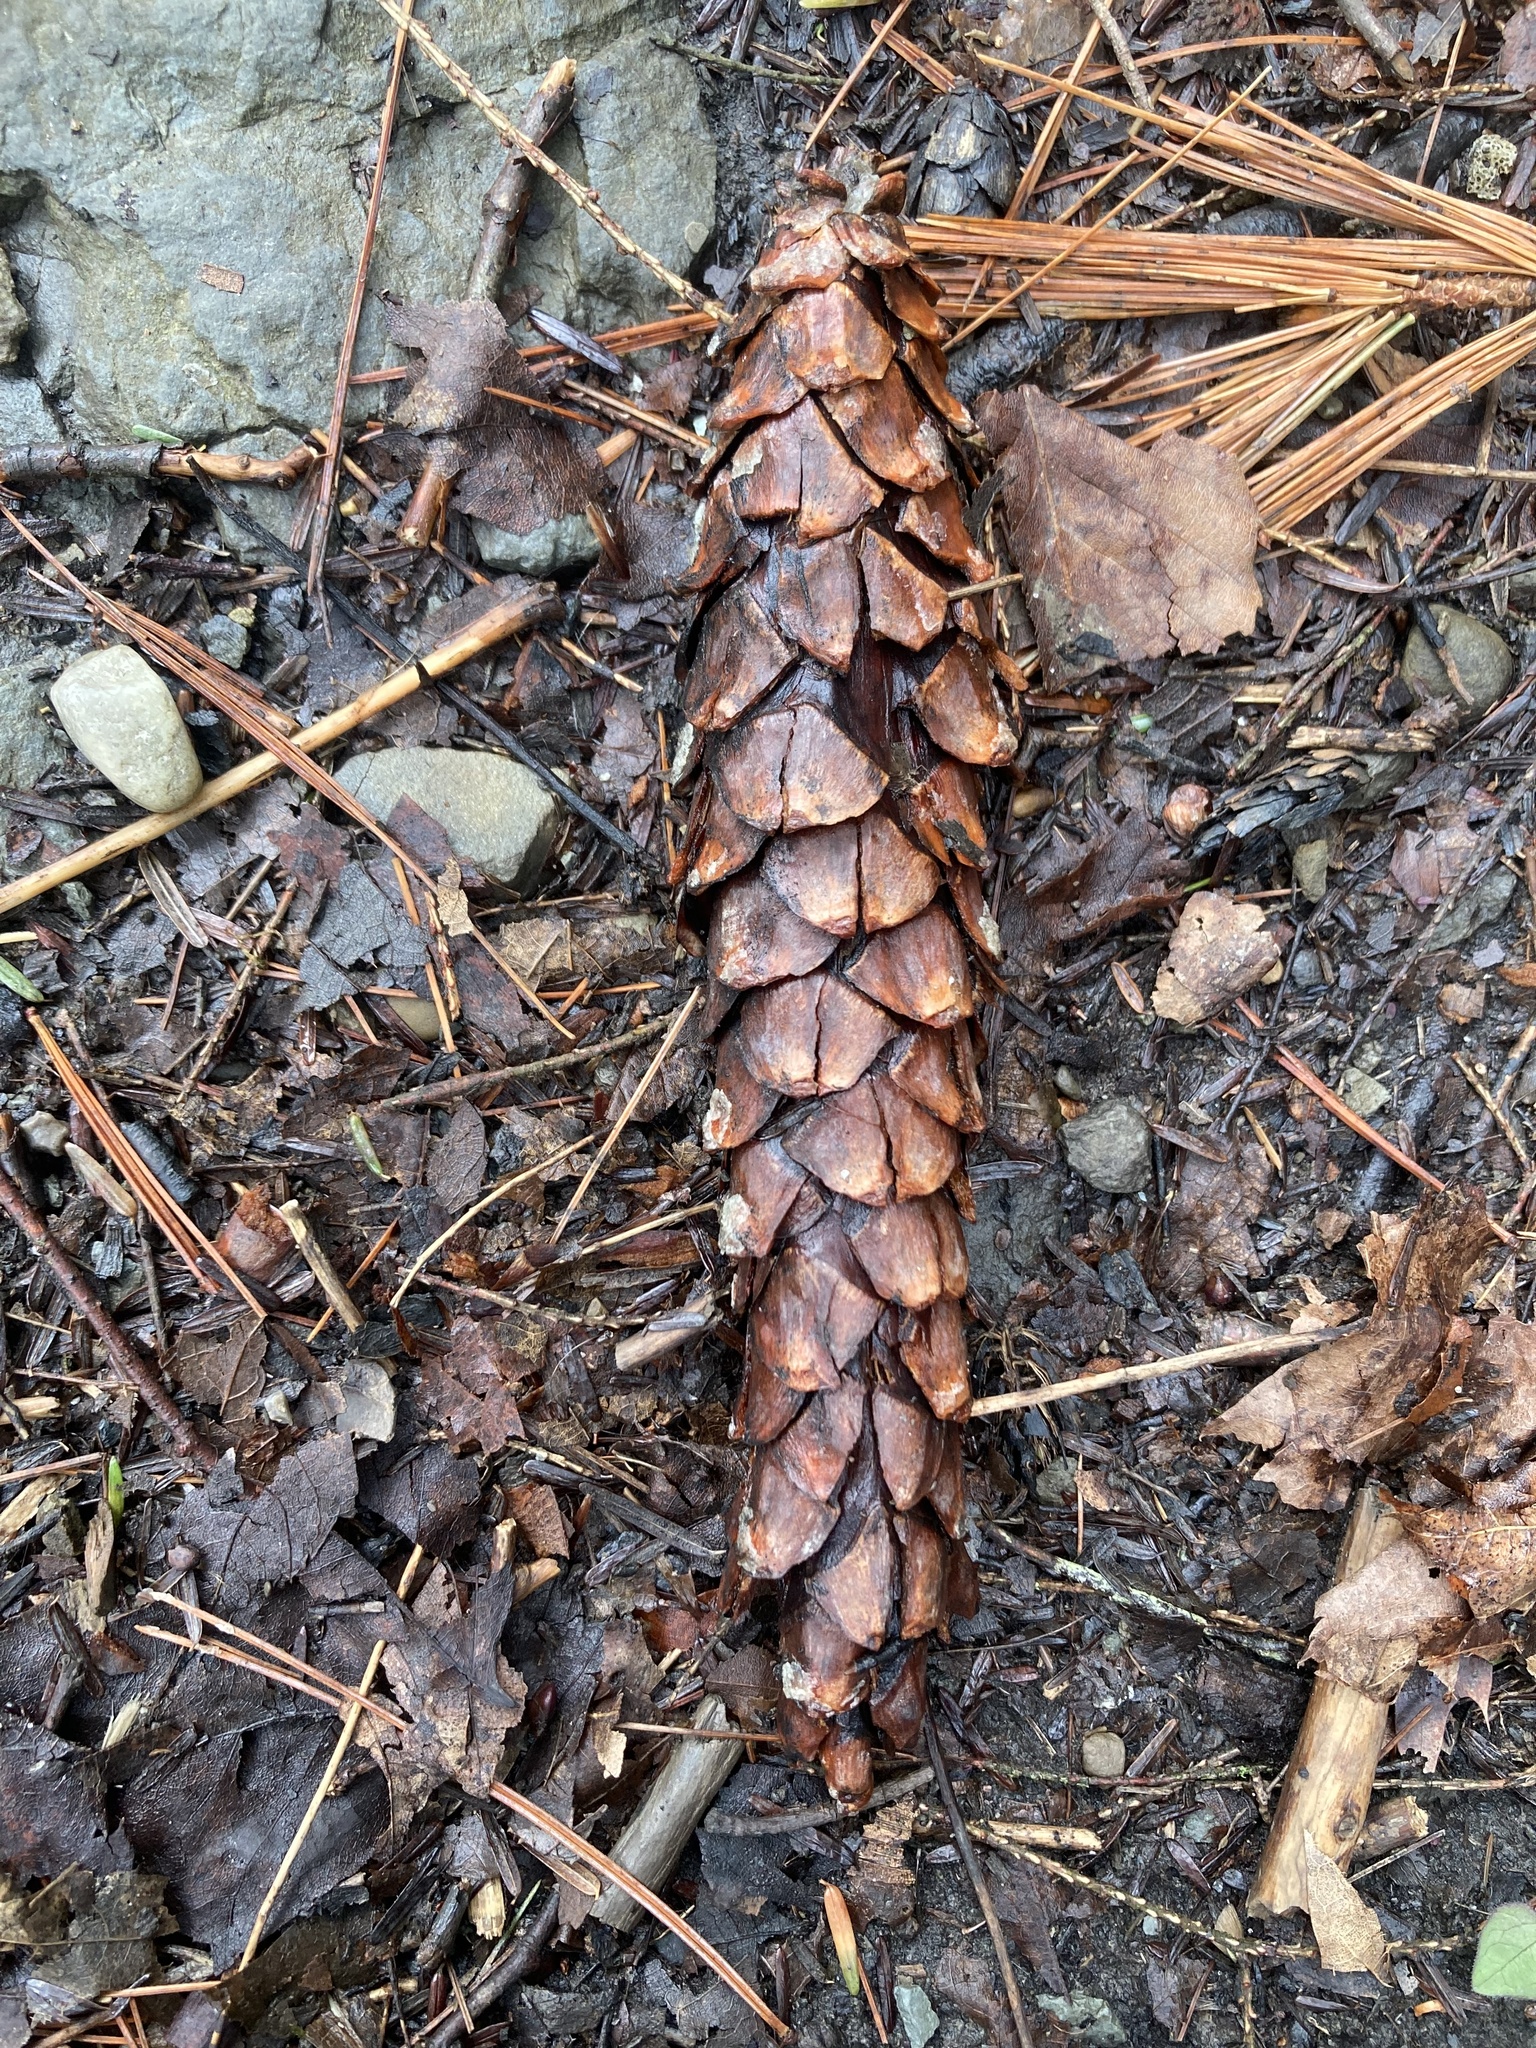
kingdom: Plantae
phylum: Tracheophyta
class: Pinopsida
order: Pinales
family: Pinaceae
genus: Pinus
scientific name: Pinus strobus
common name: Weymouth pine
